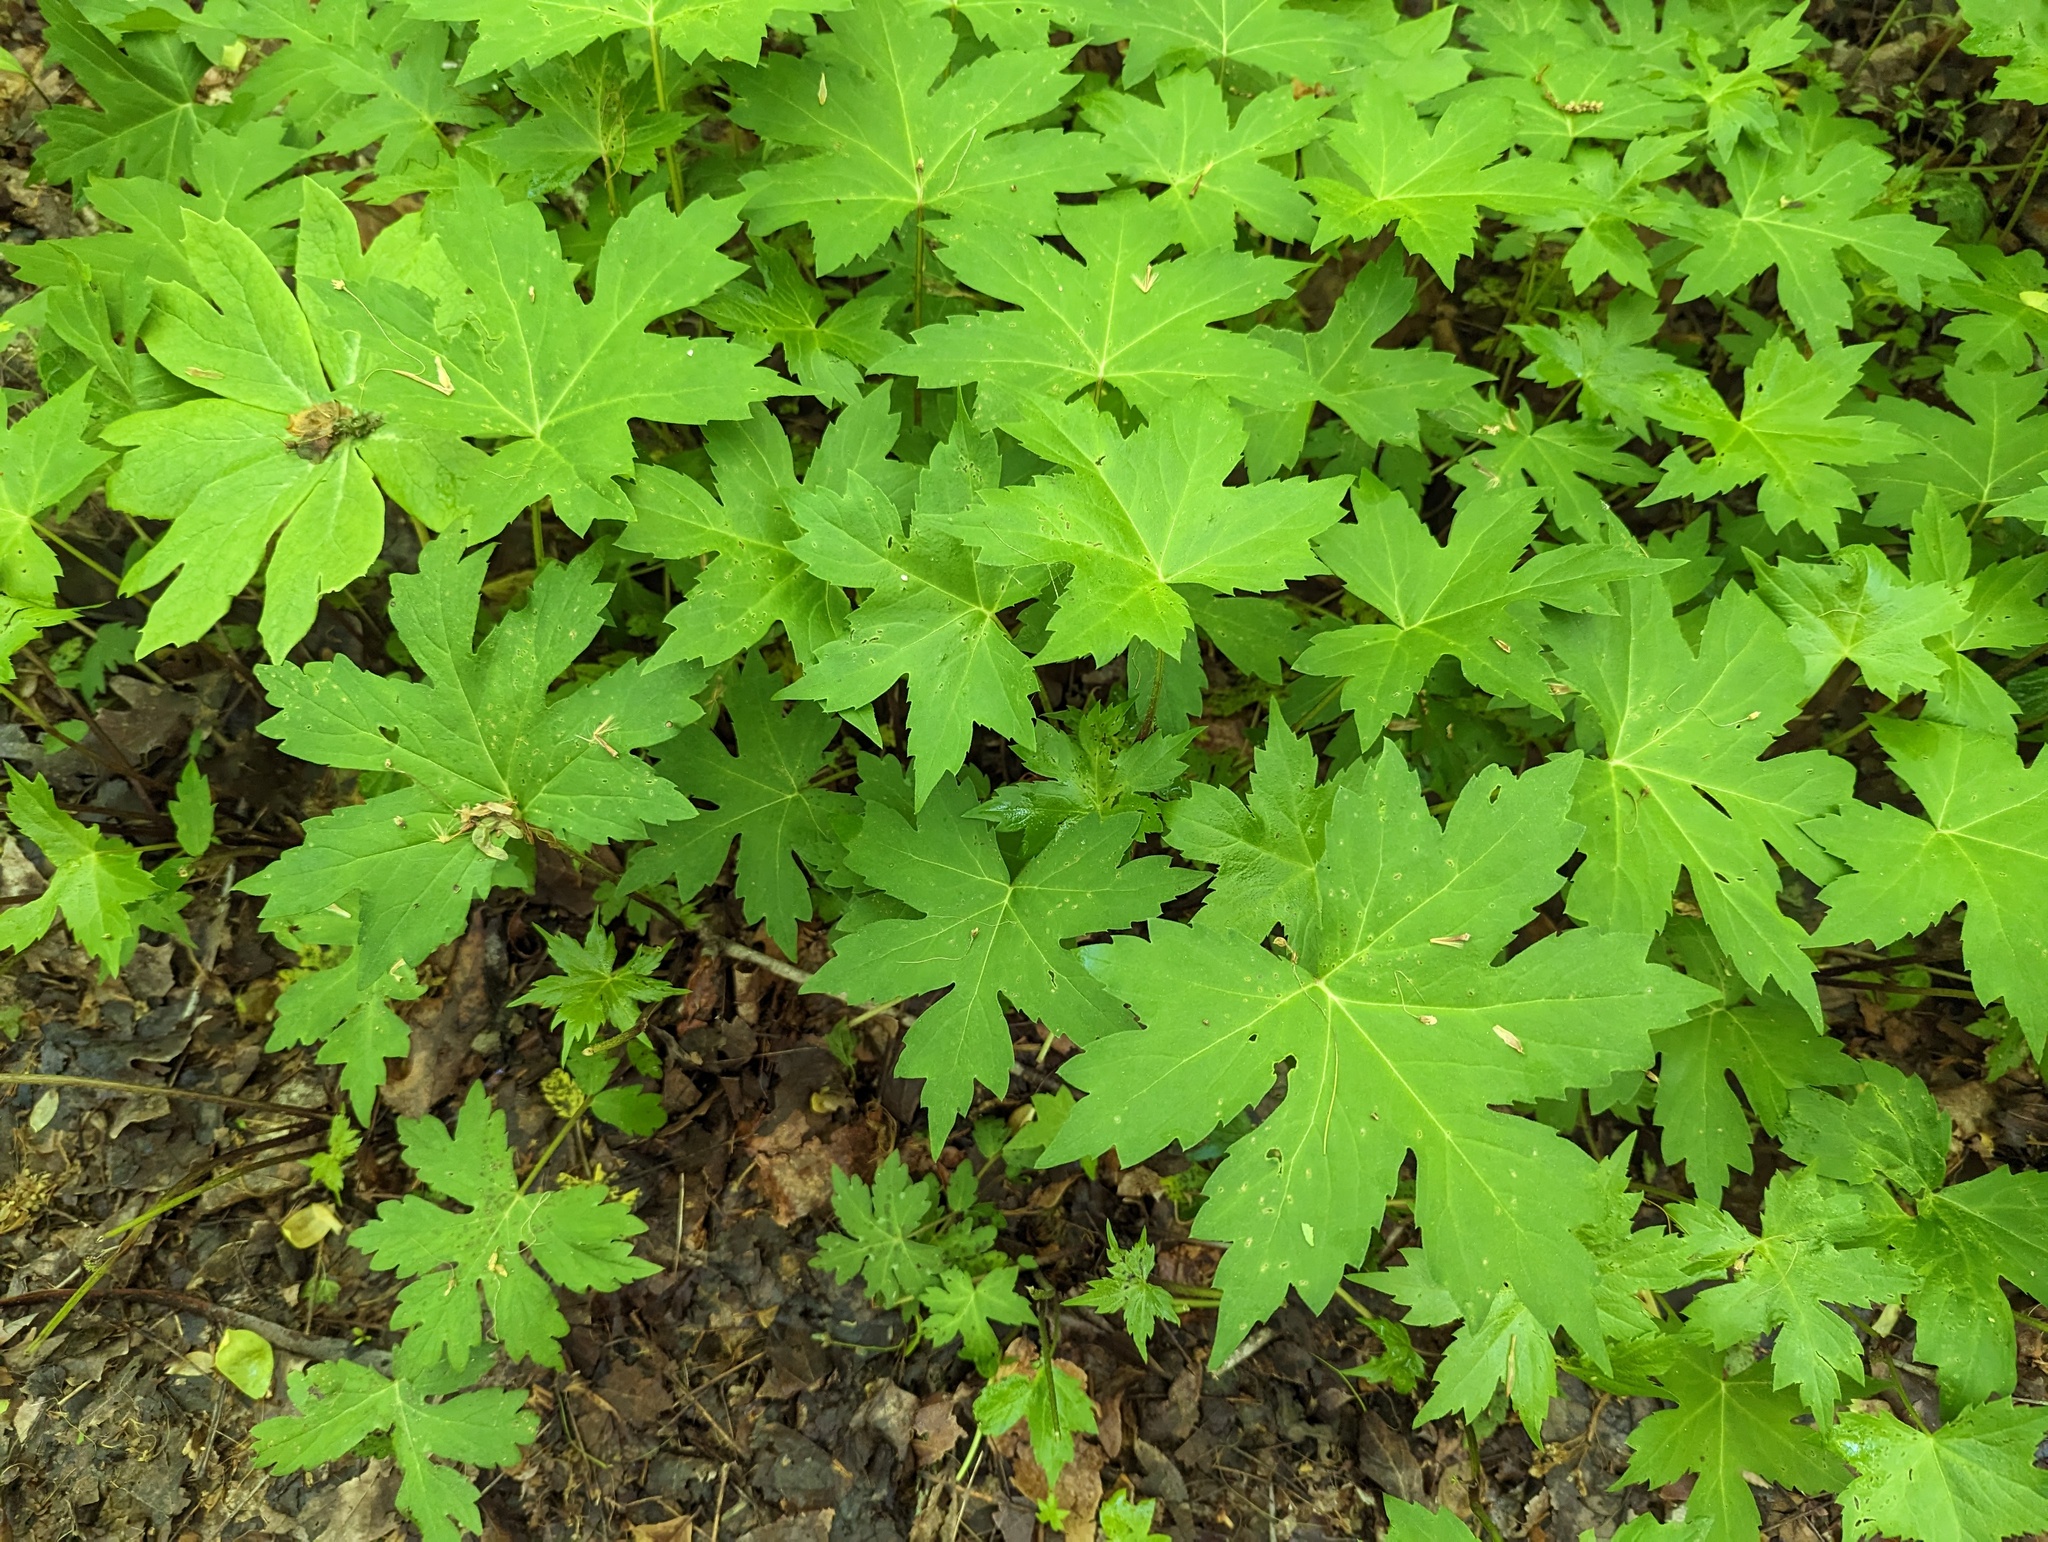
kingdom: Plantae
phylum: Tracheophyta
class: Magnoliopsida
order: Boraginales
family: Hydrophyllaceae
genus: Hydrophyllum
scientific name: Hydrophyllum canadense
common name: Canada waterleaf
